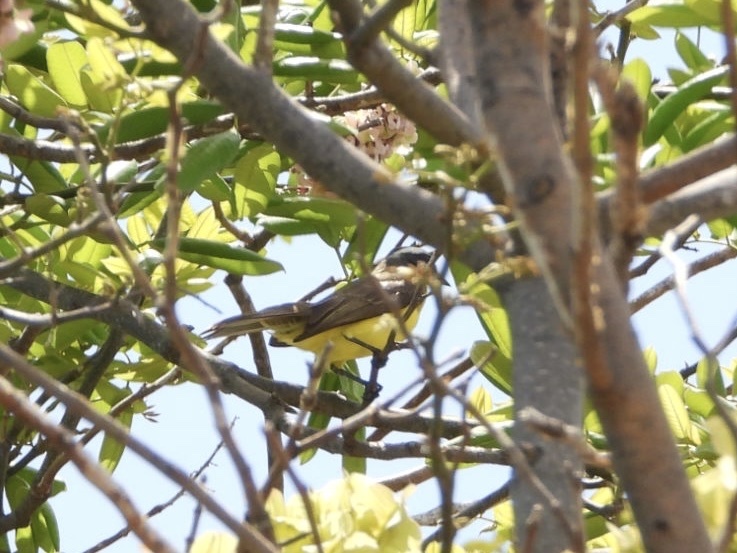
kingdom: Animalia
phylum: Chordata
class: Aves
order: Passeriformes
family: Tyrannidae
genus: Myiozetetes
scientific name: Myiozetetes similis
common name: Social flycatcher
